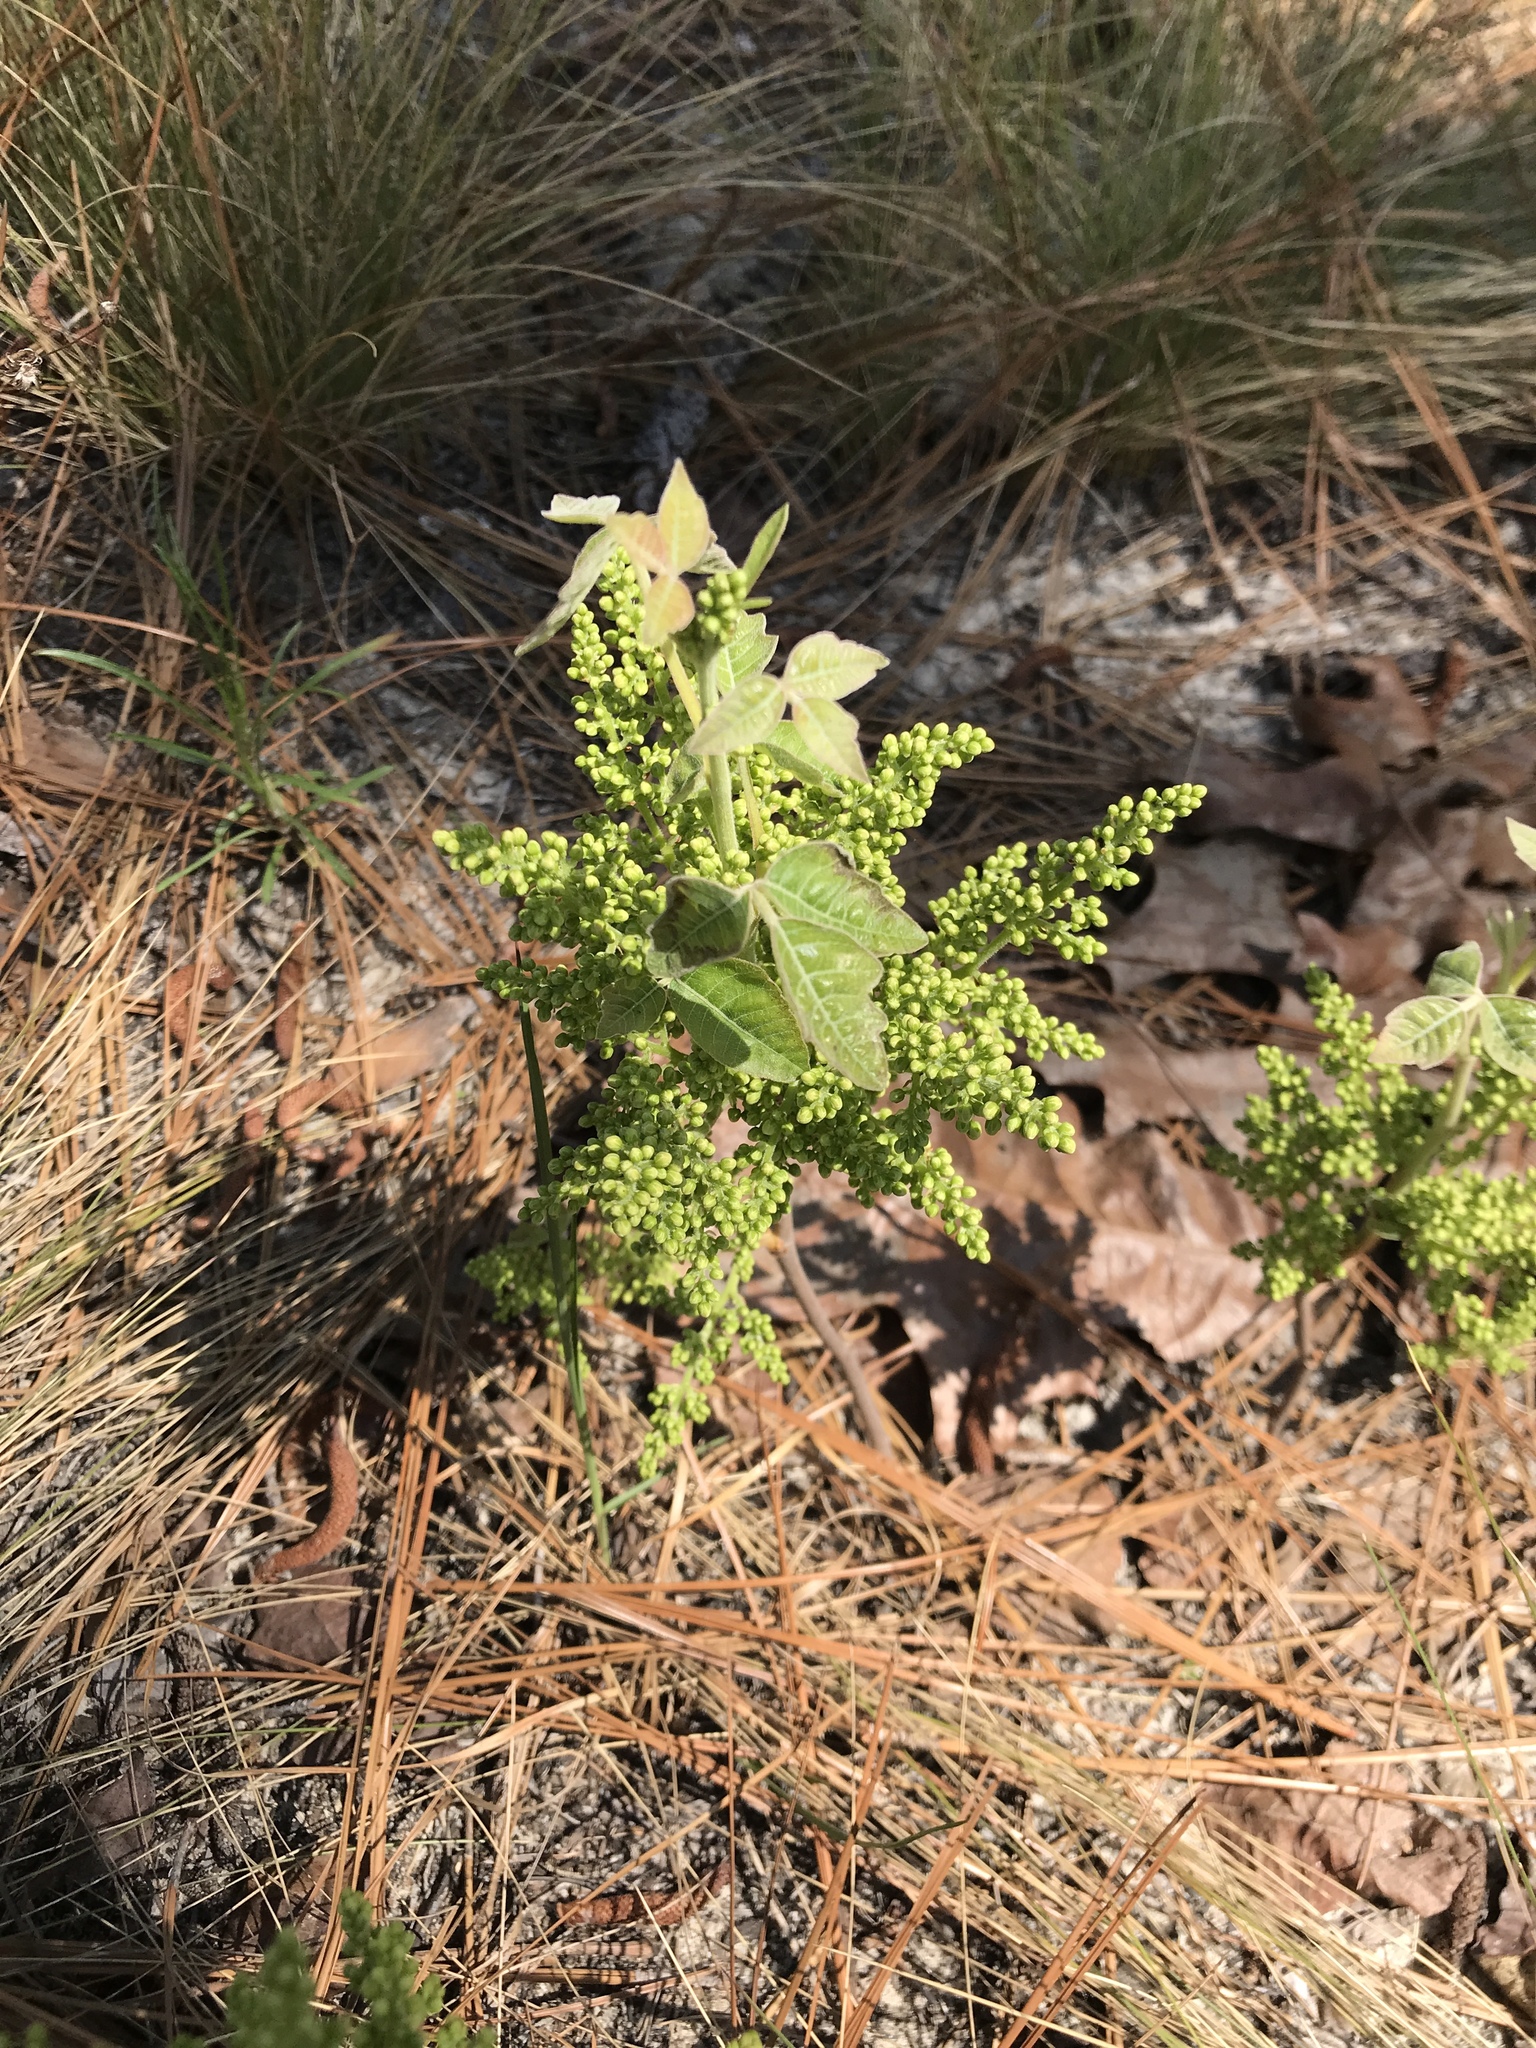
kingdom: Plantae
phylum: Tracheophyta
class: Magnoliopsida
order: Sapindales
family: Anacardiaceae
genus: Toxicodendron
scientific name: Toxicodendron pubescens
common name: Eastern poison-oak
